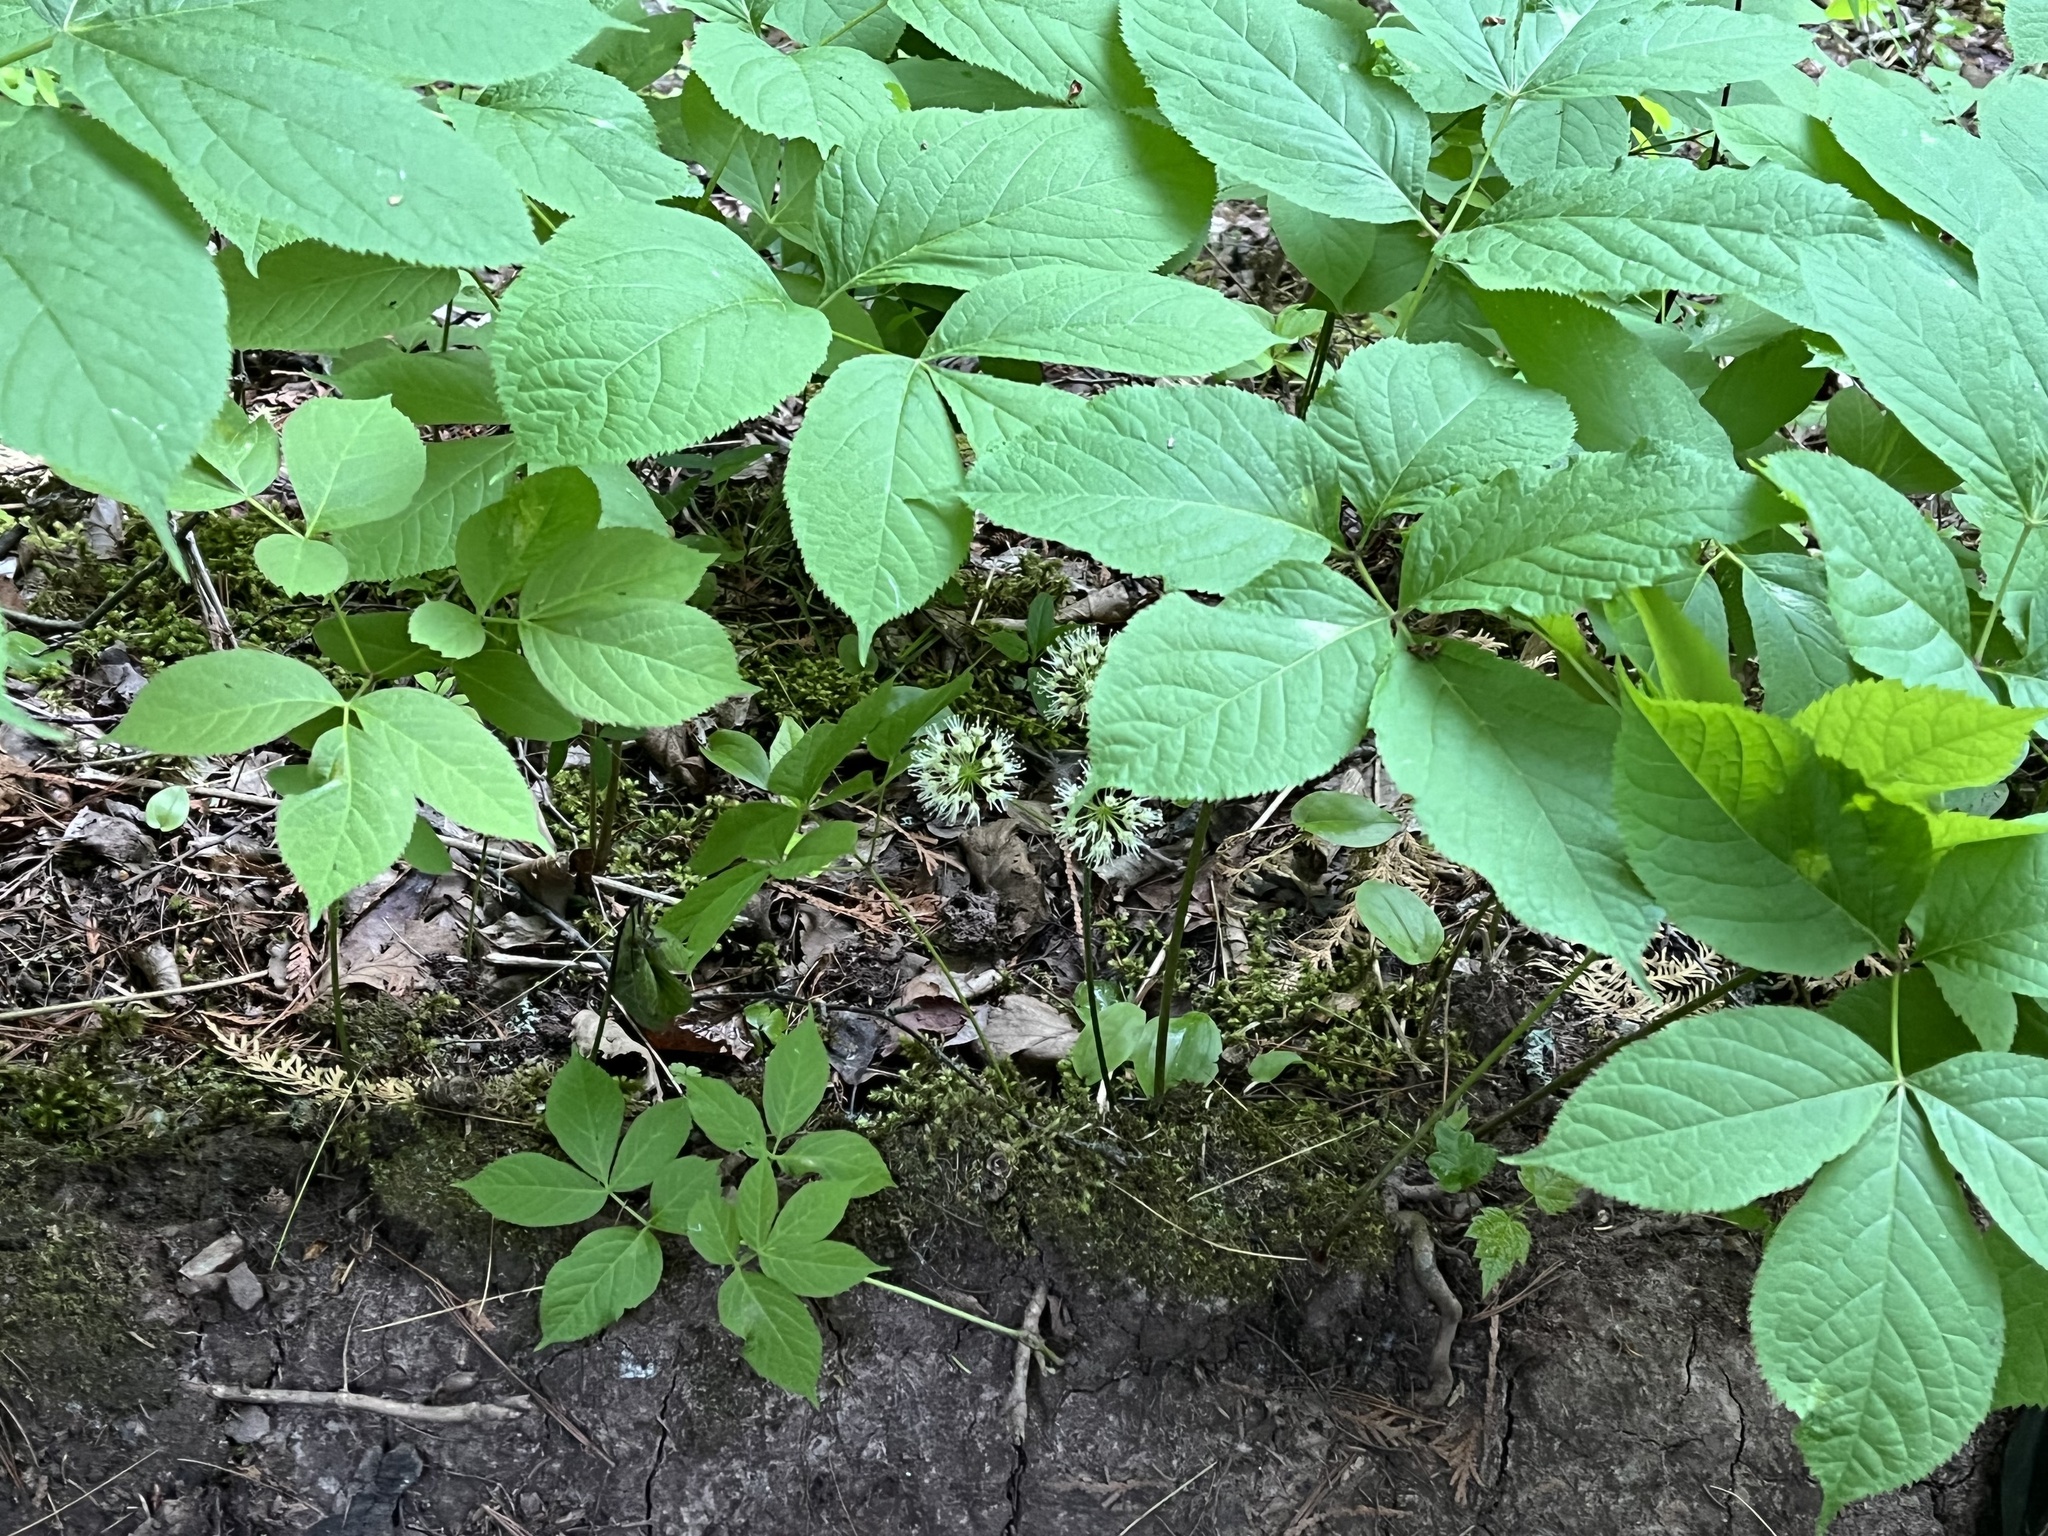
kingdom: Plantae
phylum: Tracheophyta
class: Magnoliopsida
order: Apiales
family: Araliaceae
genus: Aralia
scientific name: Aralia nudicaulis
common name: Wild sarsaparilla
